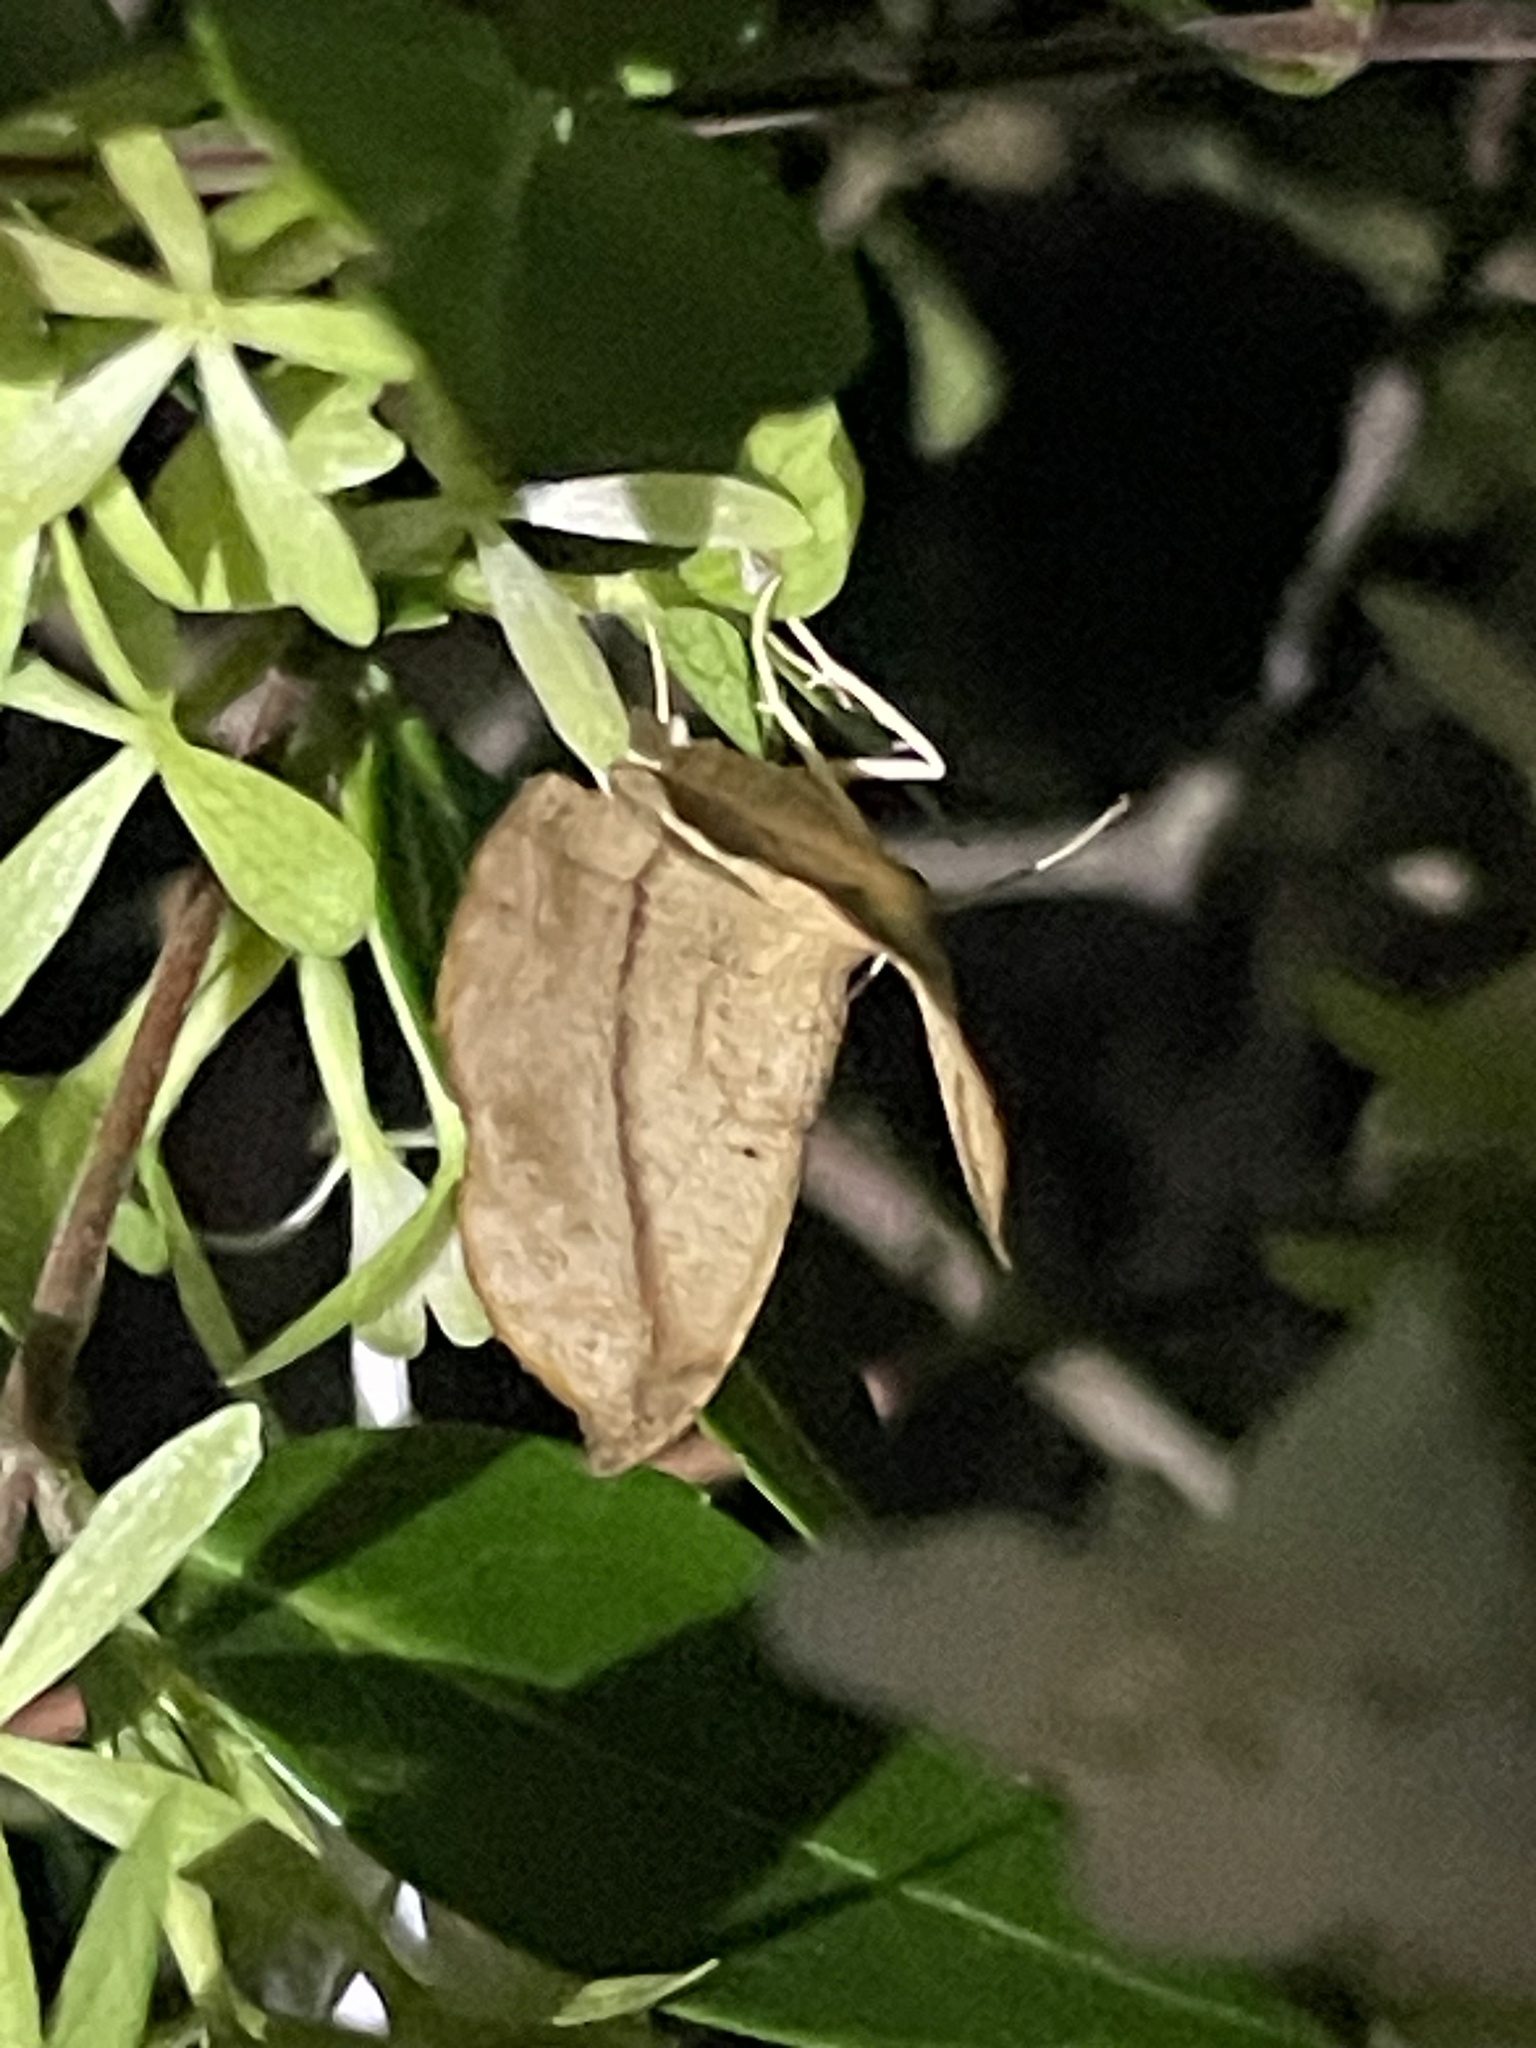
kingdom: Animalia
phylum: Arthropoda
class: Insecta
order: Lepidoptera
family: Geometridae
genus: Patalene
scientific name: Patalene olyzonaria
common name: Juniper geometer moth
